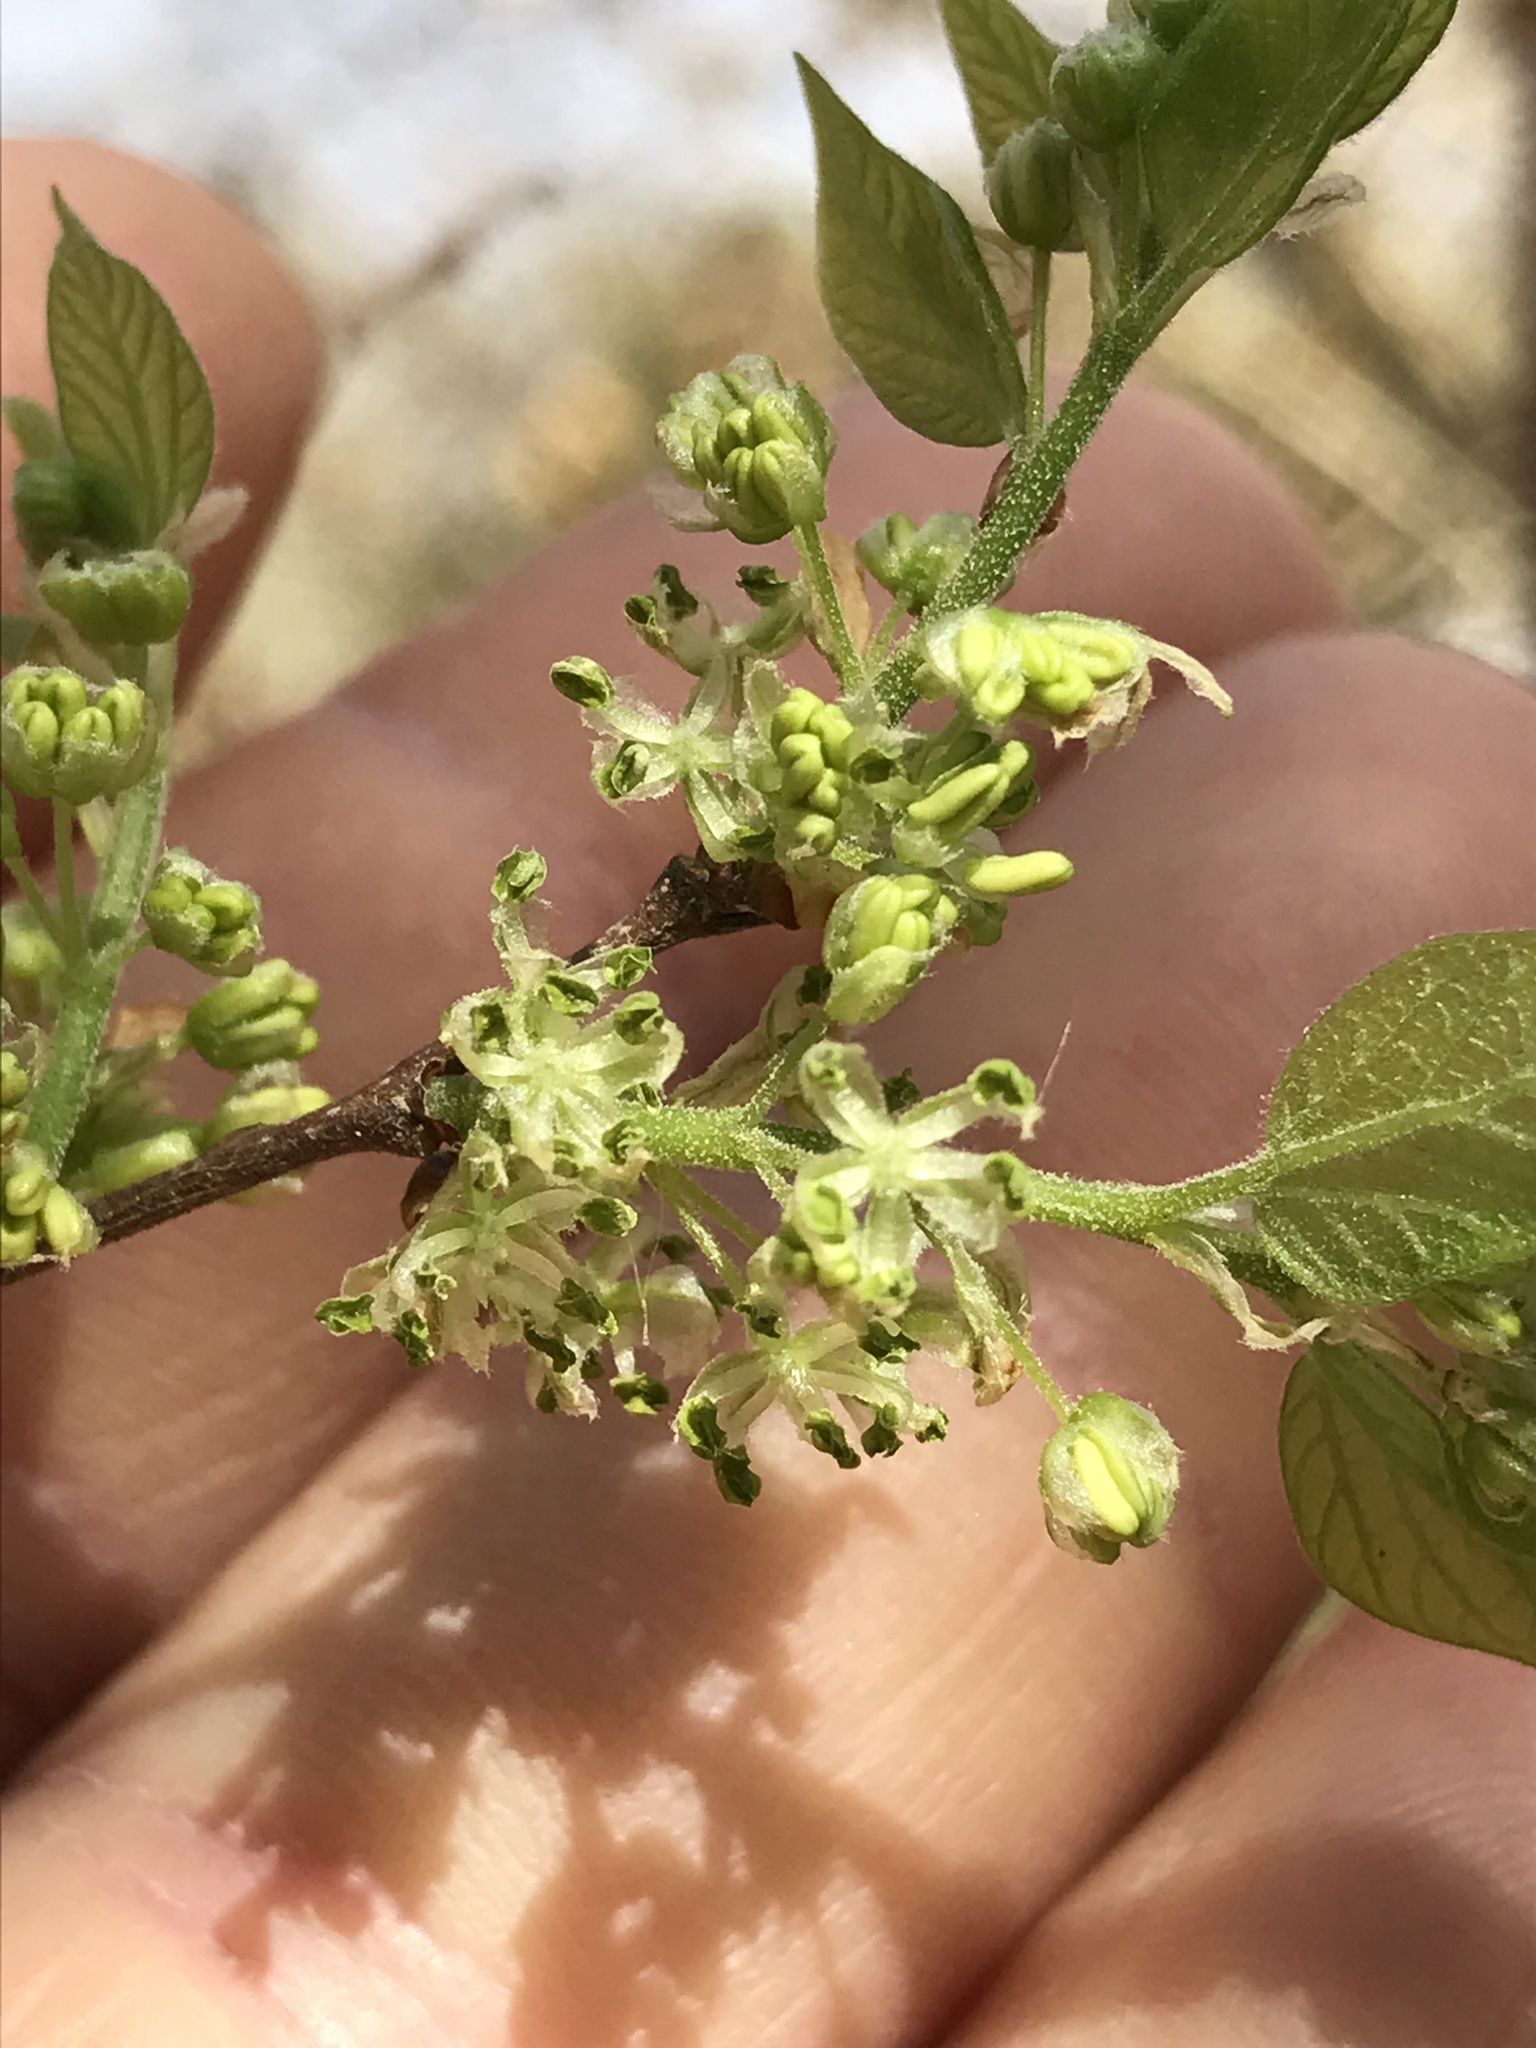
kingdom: Plantae
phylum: Tracheophyta
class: Magnoliopsida
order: Rosales
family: Cannabaceae
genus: Celtis
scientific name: Celtis laevigata
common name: Sugarberry
